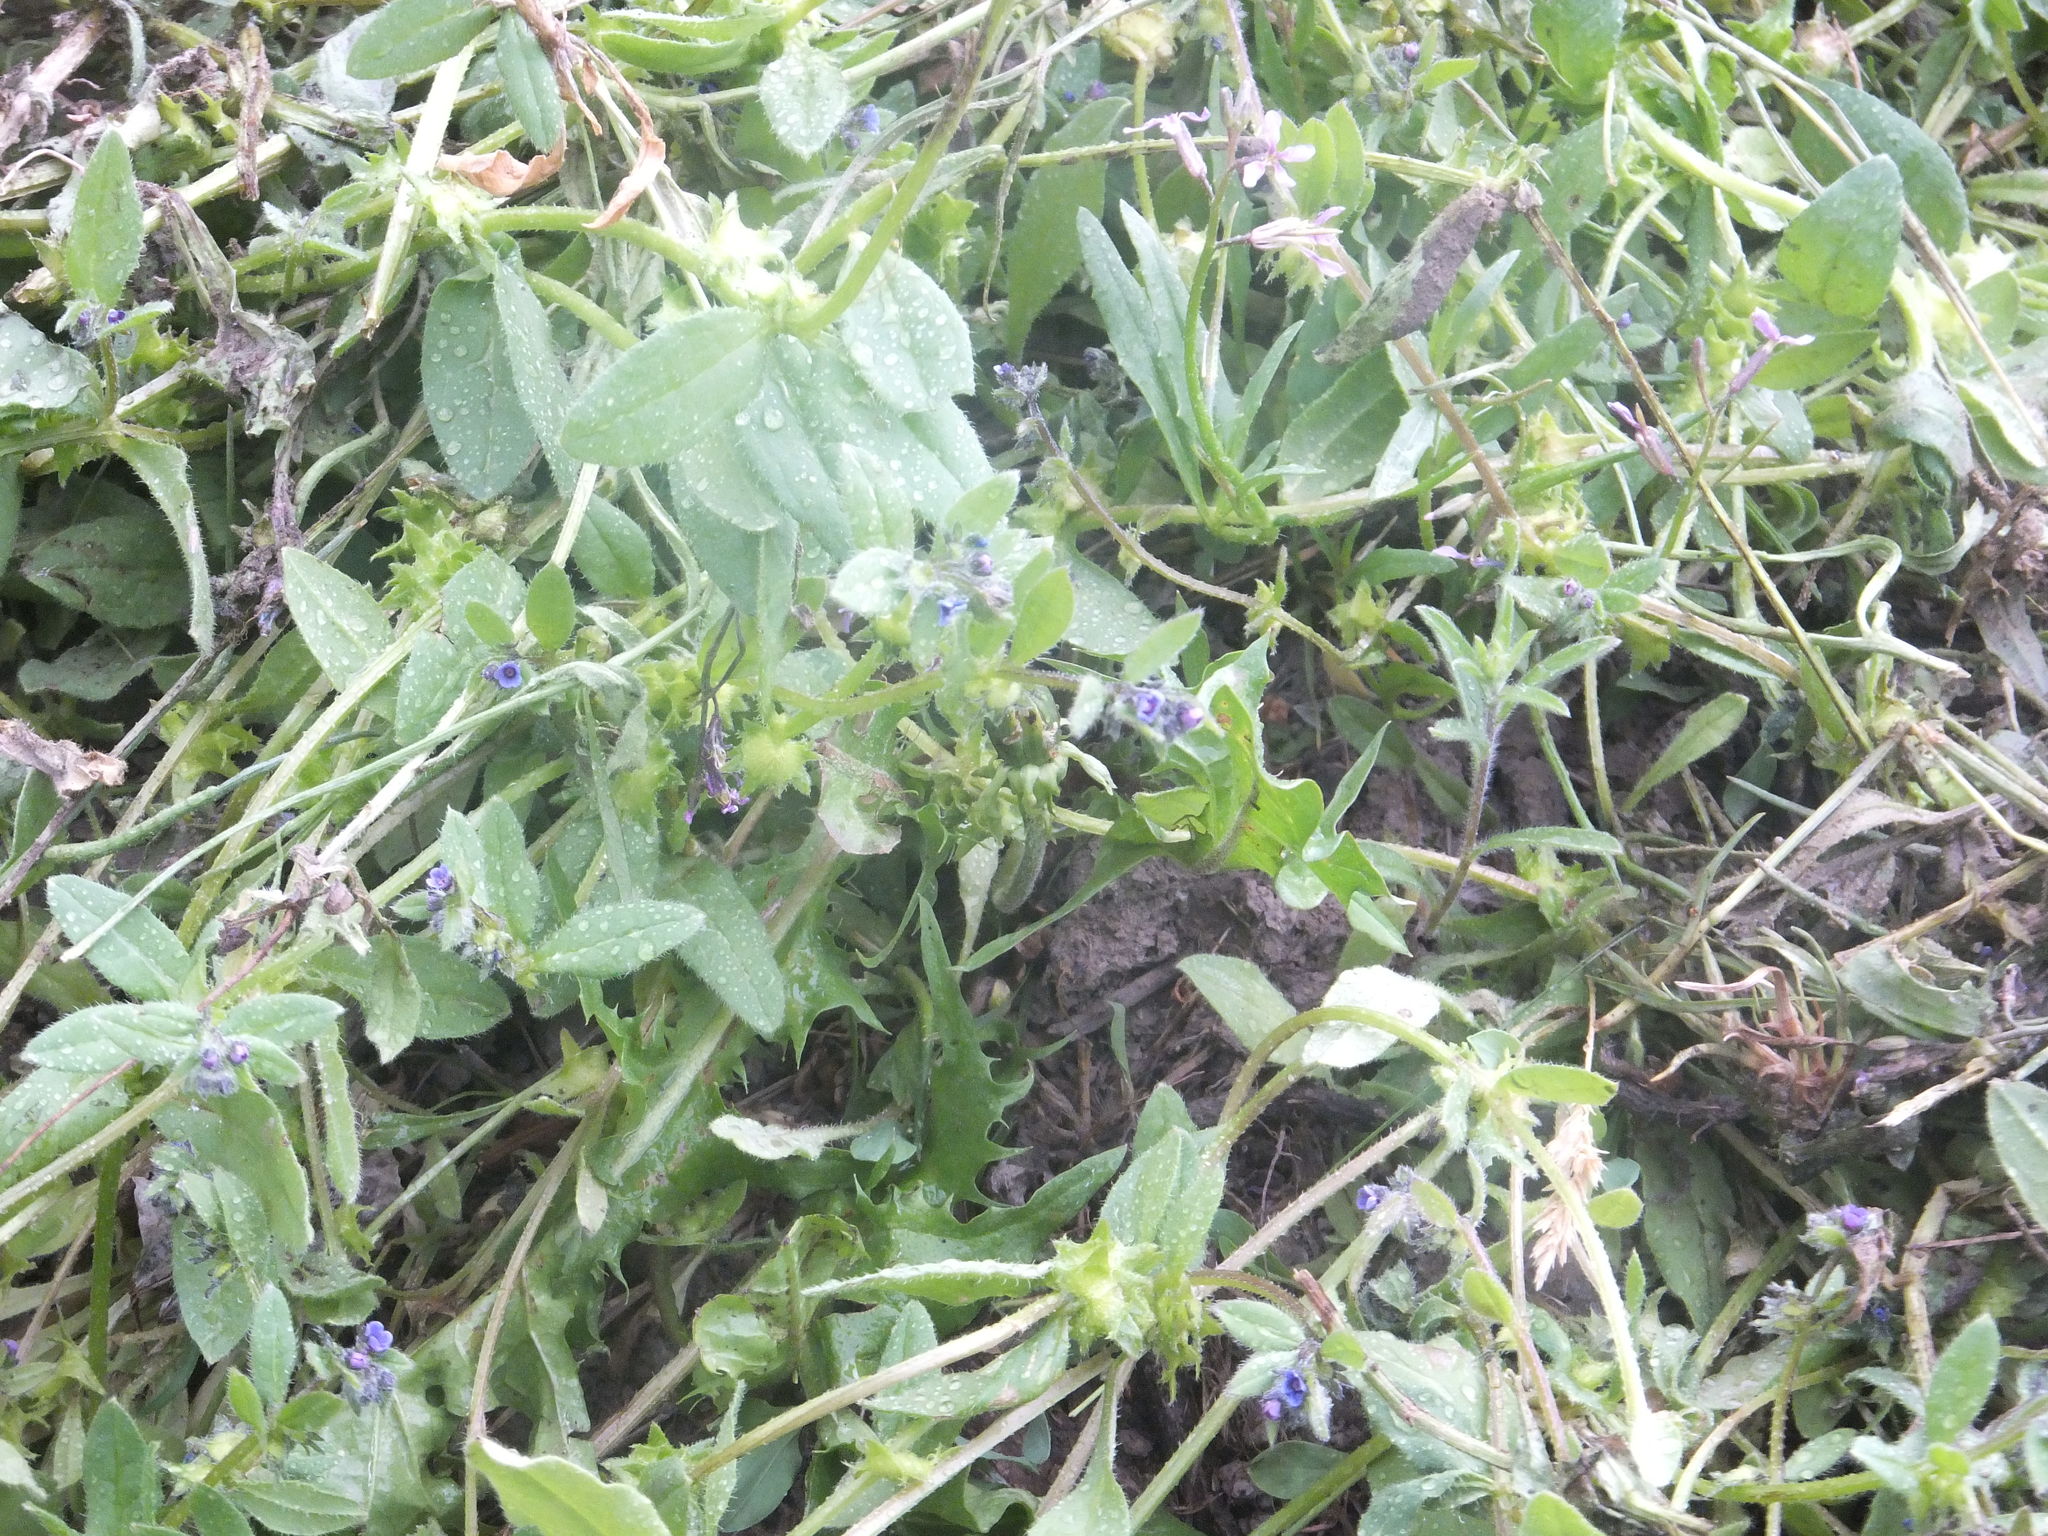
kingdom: Plantae
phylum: Tracheophyta
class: Magnoliopsida
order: Boraginales
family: Boraginaceae
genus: Asperugo
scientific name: Asperugo procumbens
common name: Madwort
